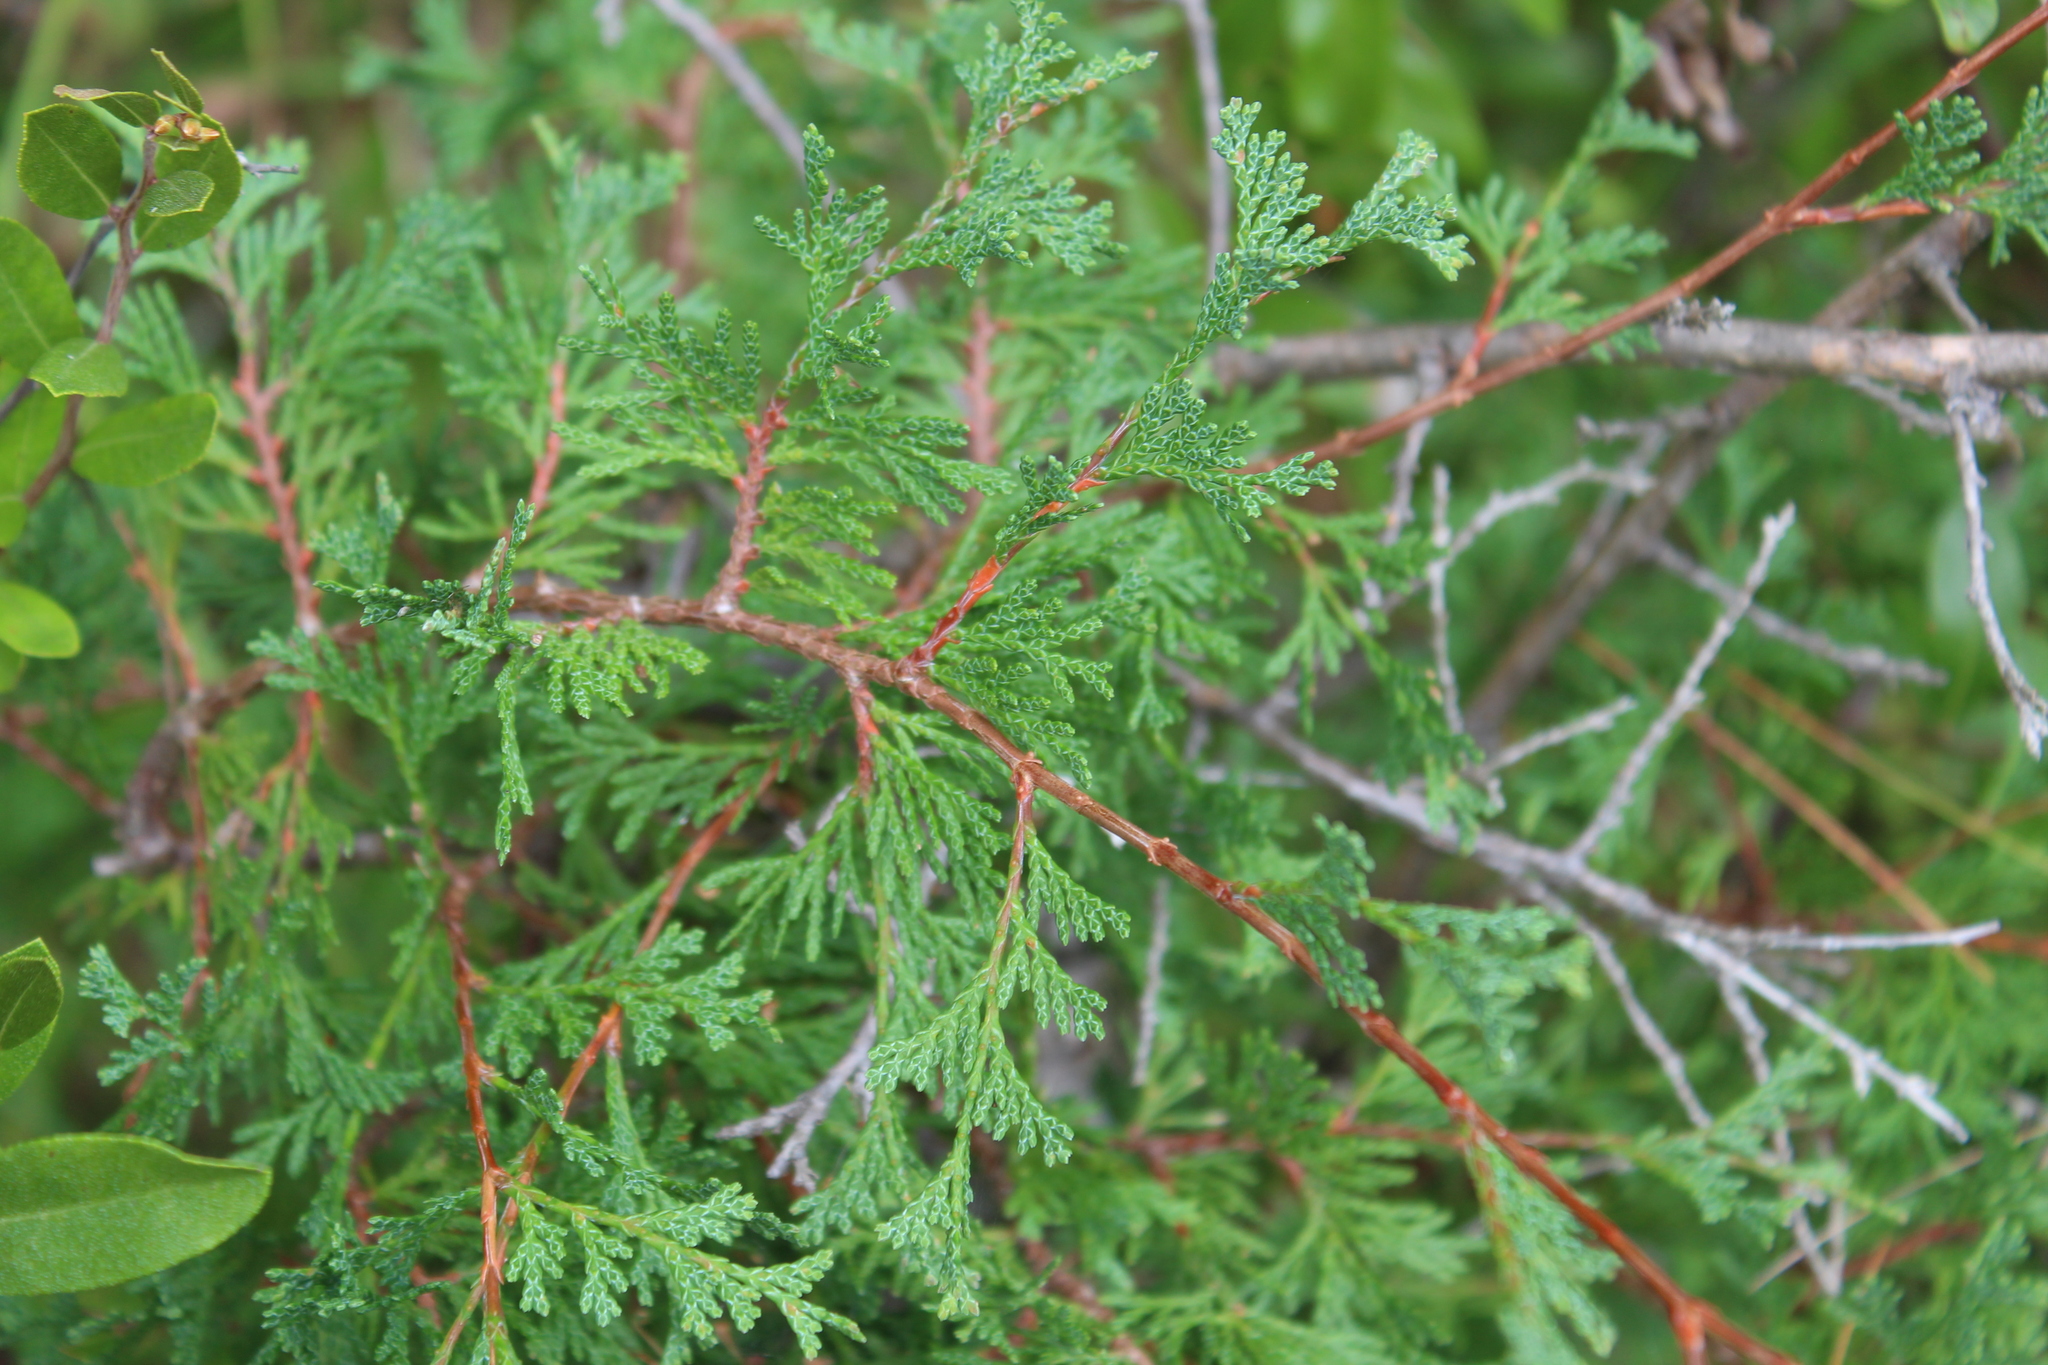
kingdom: Plantae
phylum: Tracheophyta
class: Pinopsida
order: Pinales
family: Cupressaceae
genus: Chamaecyparis
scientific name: Chamaecyparis thyoides
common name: Atlantic white cedar
